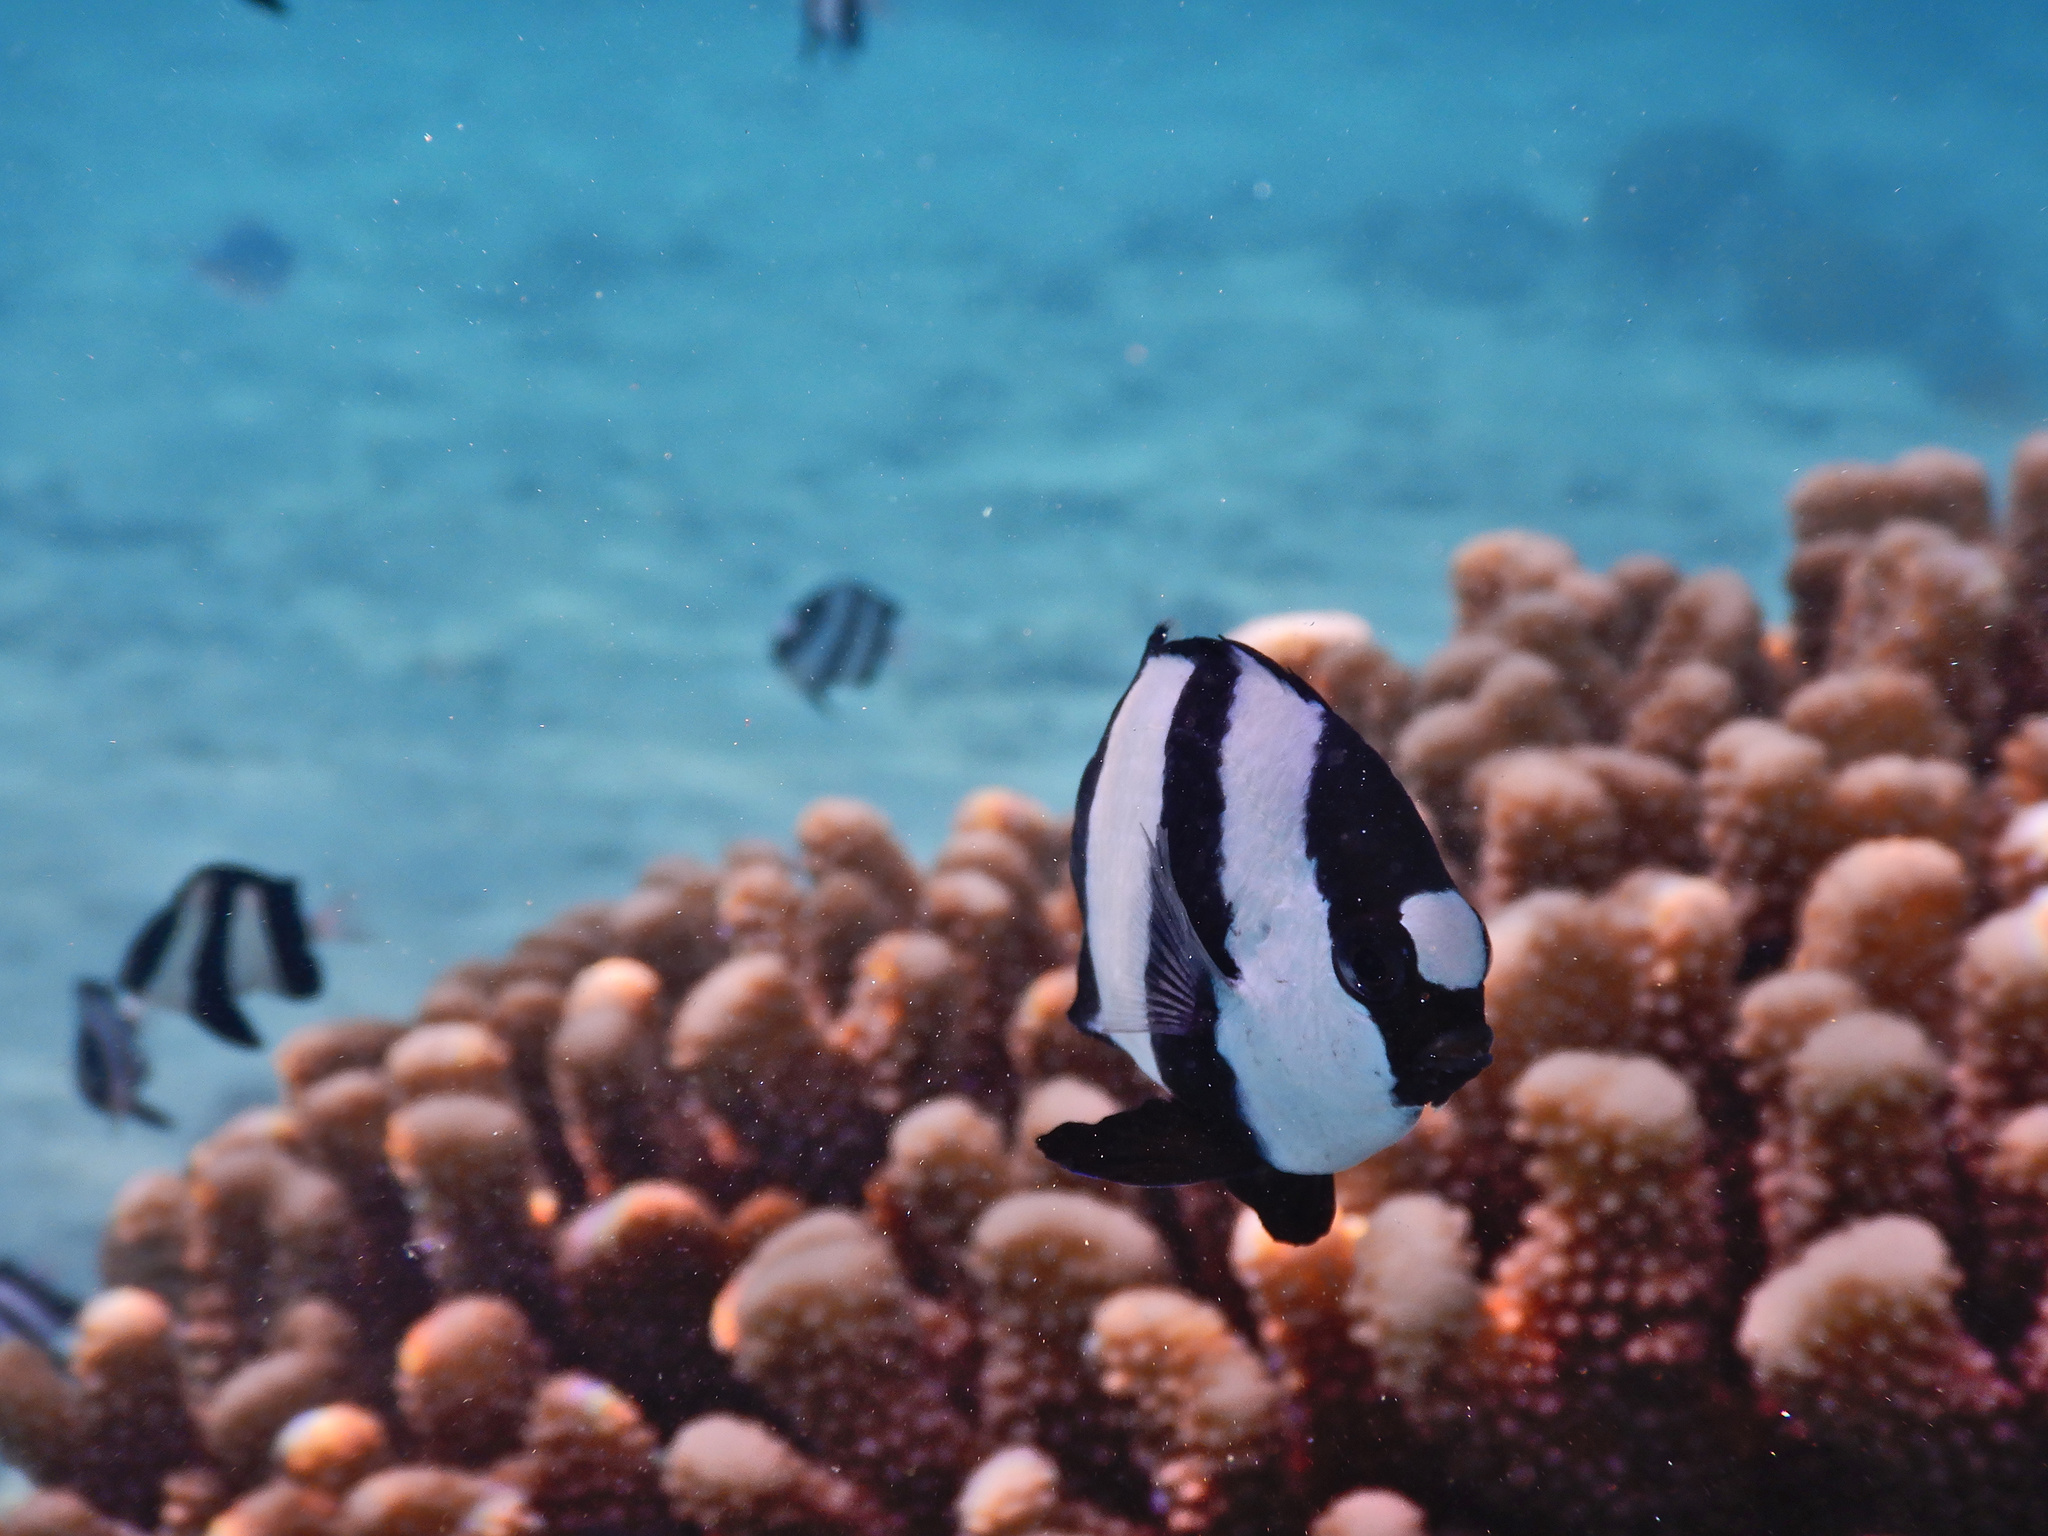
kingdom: Animalia
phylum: Chordata
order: Perciformes
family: Pomacentridae
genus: Dascyllus
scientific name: Dascyllus aruanus
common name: Humbug dascyllus
